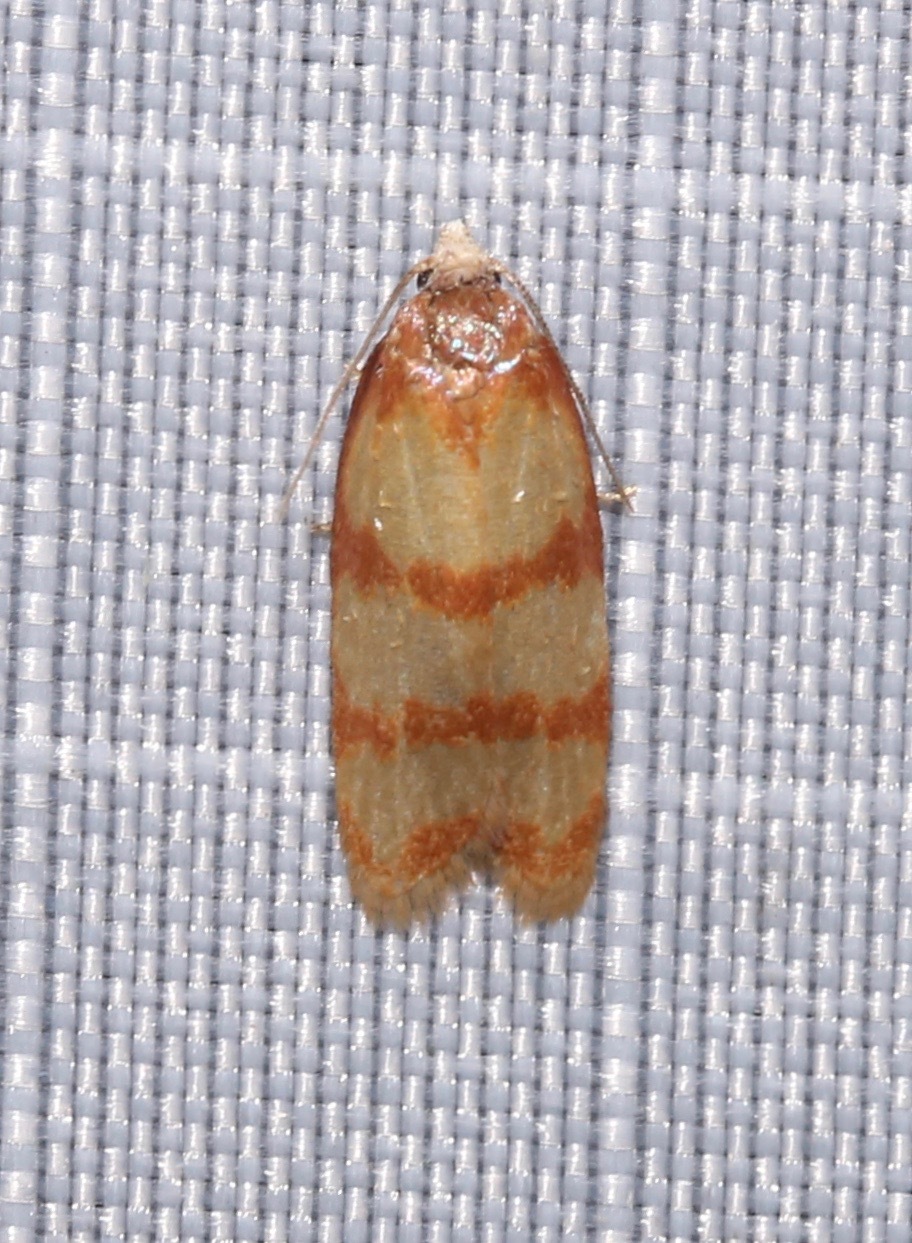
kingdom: Animalia
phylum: Arthropoda
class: Insecta
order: Lepidoptera
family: Tortricidae
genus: Sparganothis
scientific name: Sparganothis lindalinea
